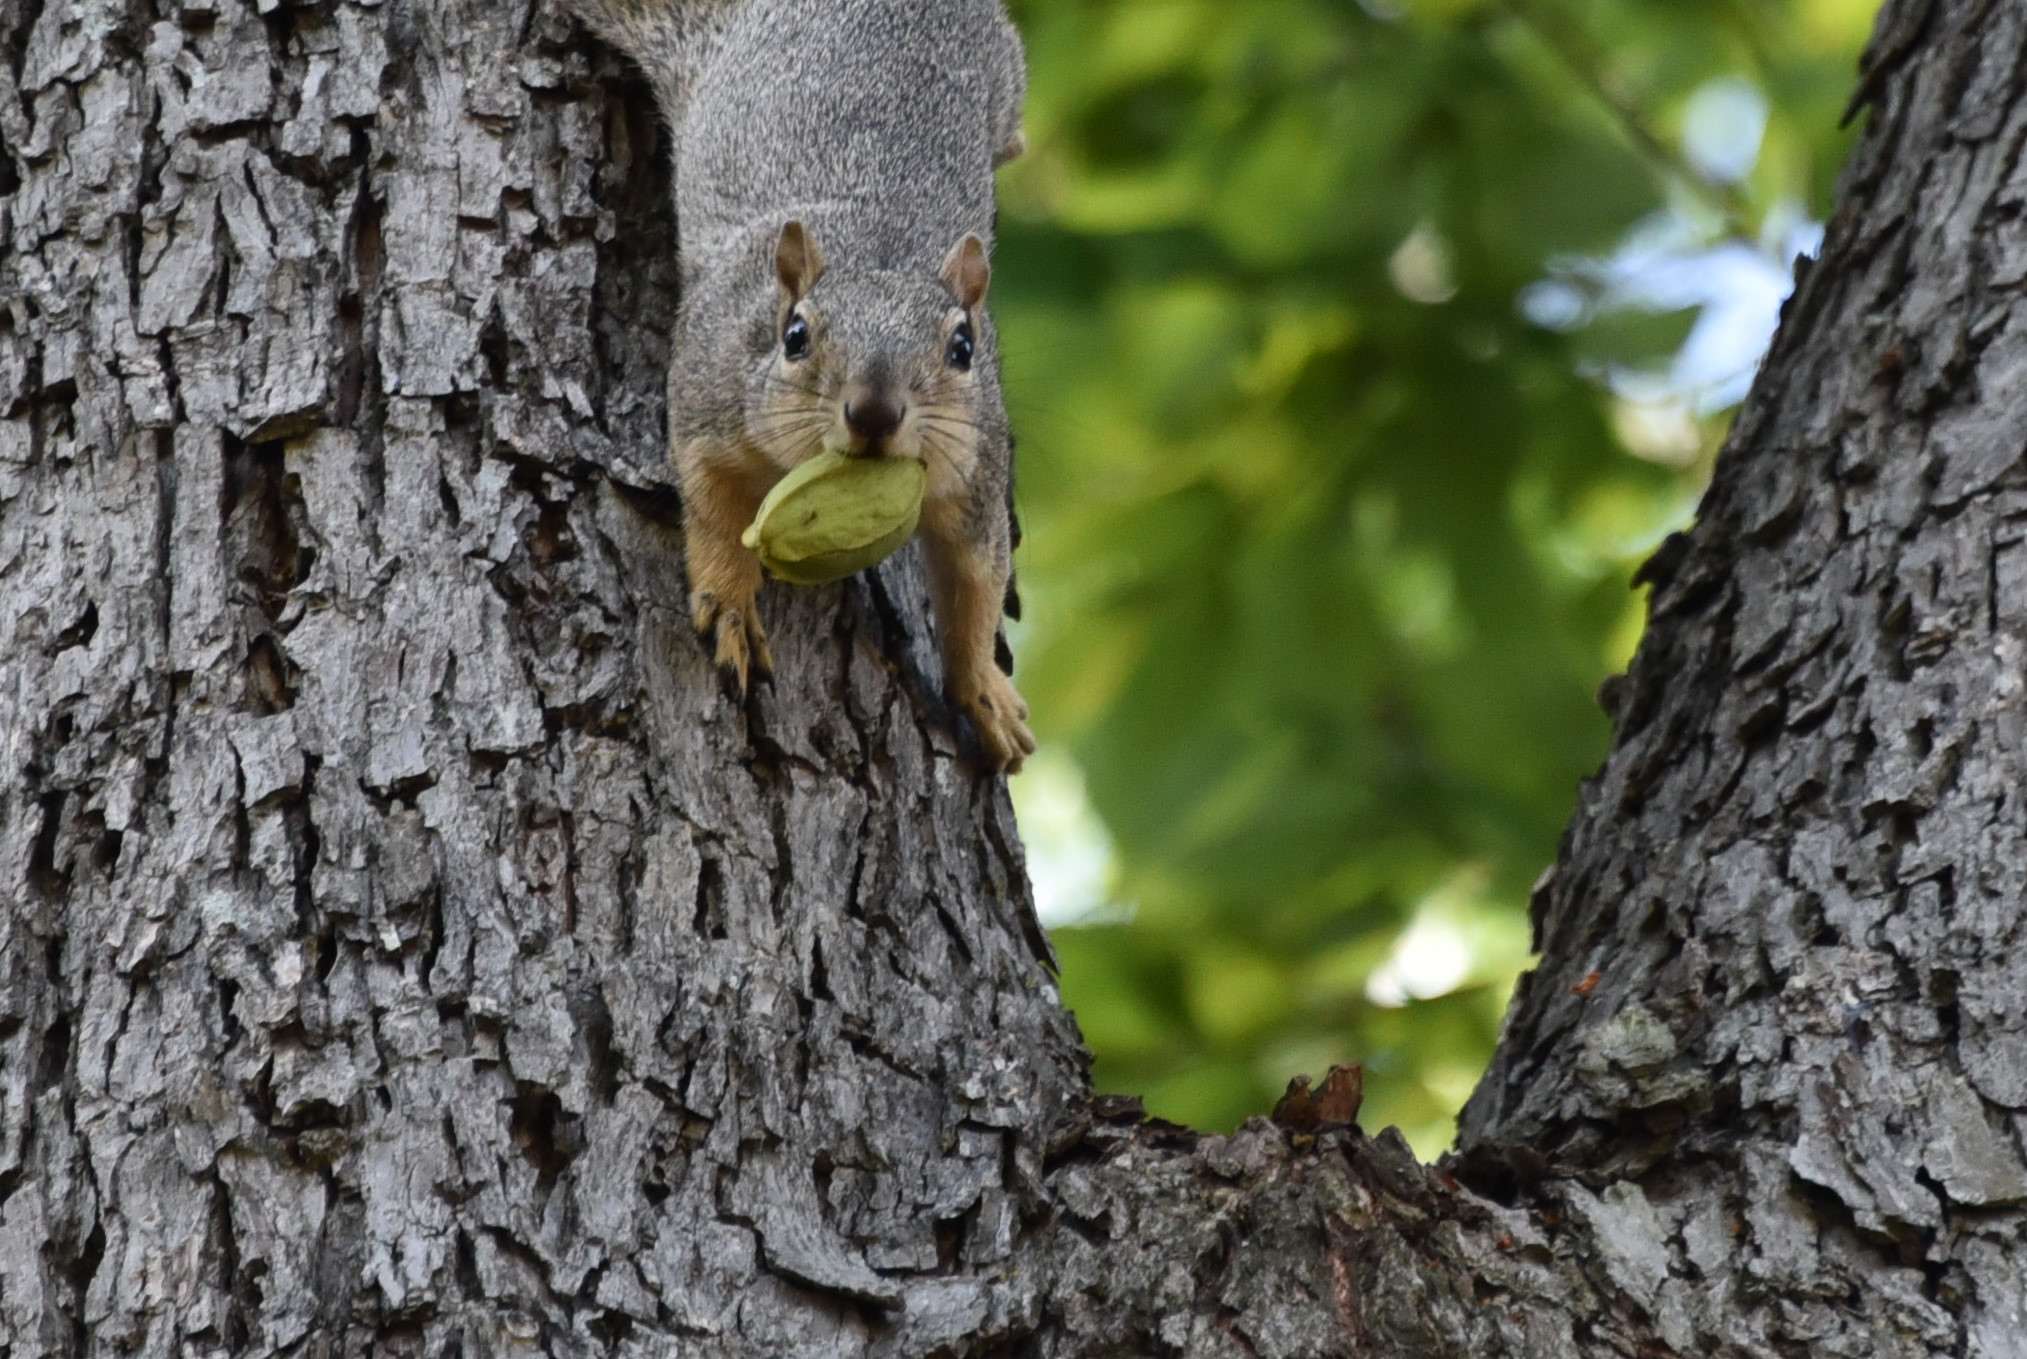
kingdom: Plantae
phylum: Tracheophyta
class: Magnoliopsida
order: Fagales
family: Juglandaceae
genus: Carya
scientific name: Carya illinoinensis
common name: Pecan
